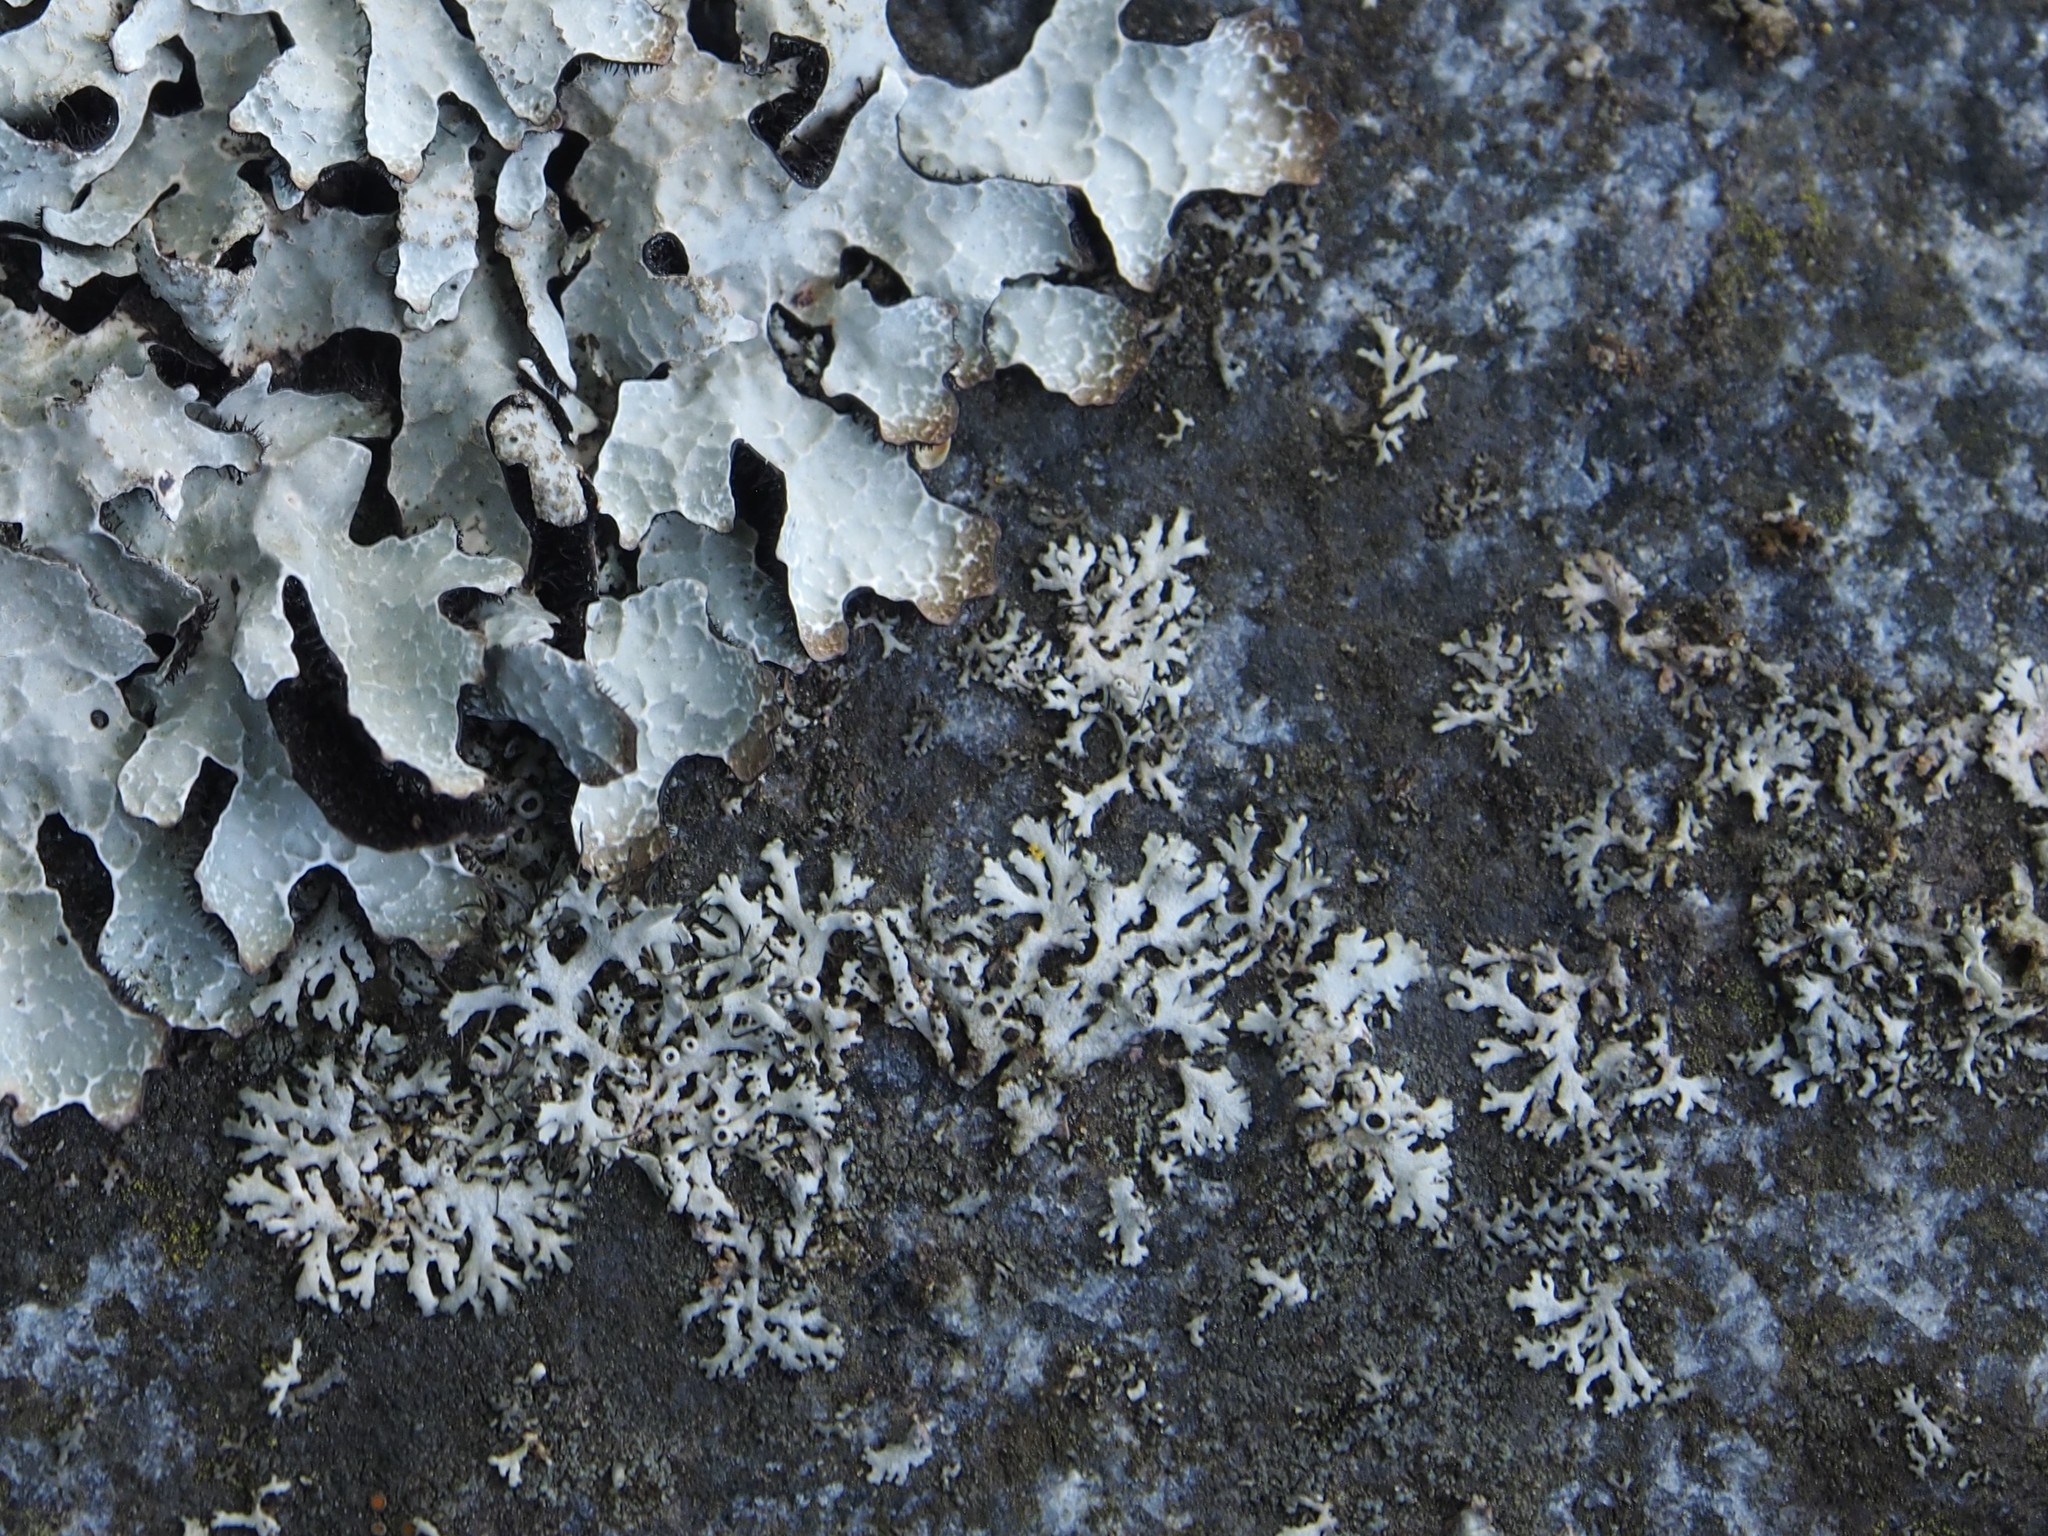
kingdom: Fungi
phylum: Ascomycota
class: Lecanoromycetes
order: Caliciales
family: Physciaceae
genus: Physcia
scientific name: Physcia tenella
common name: Fringed rosette lichen
